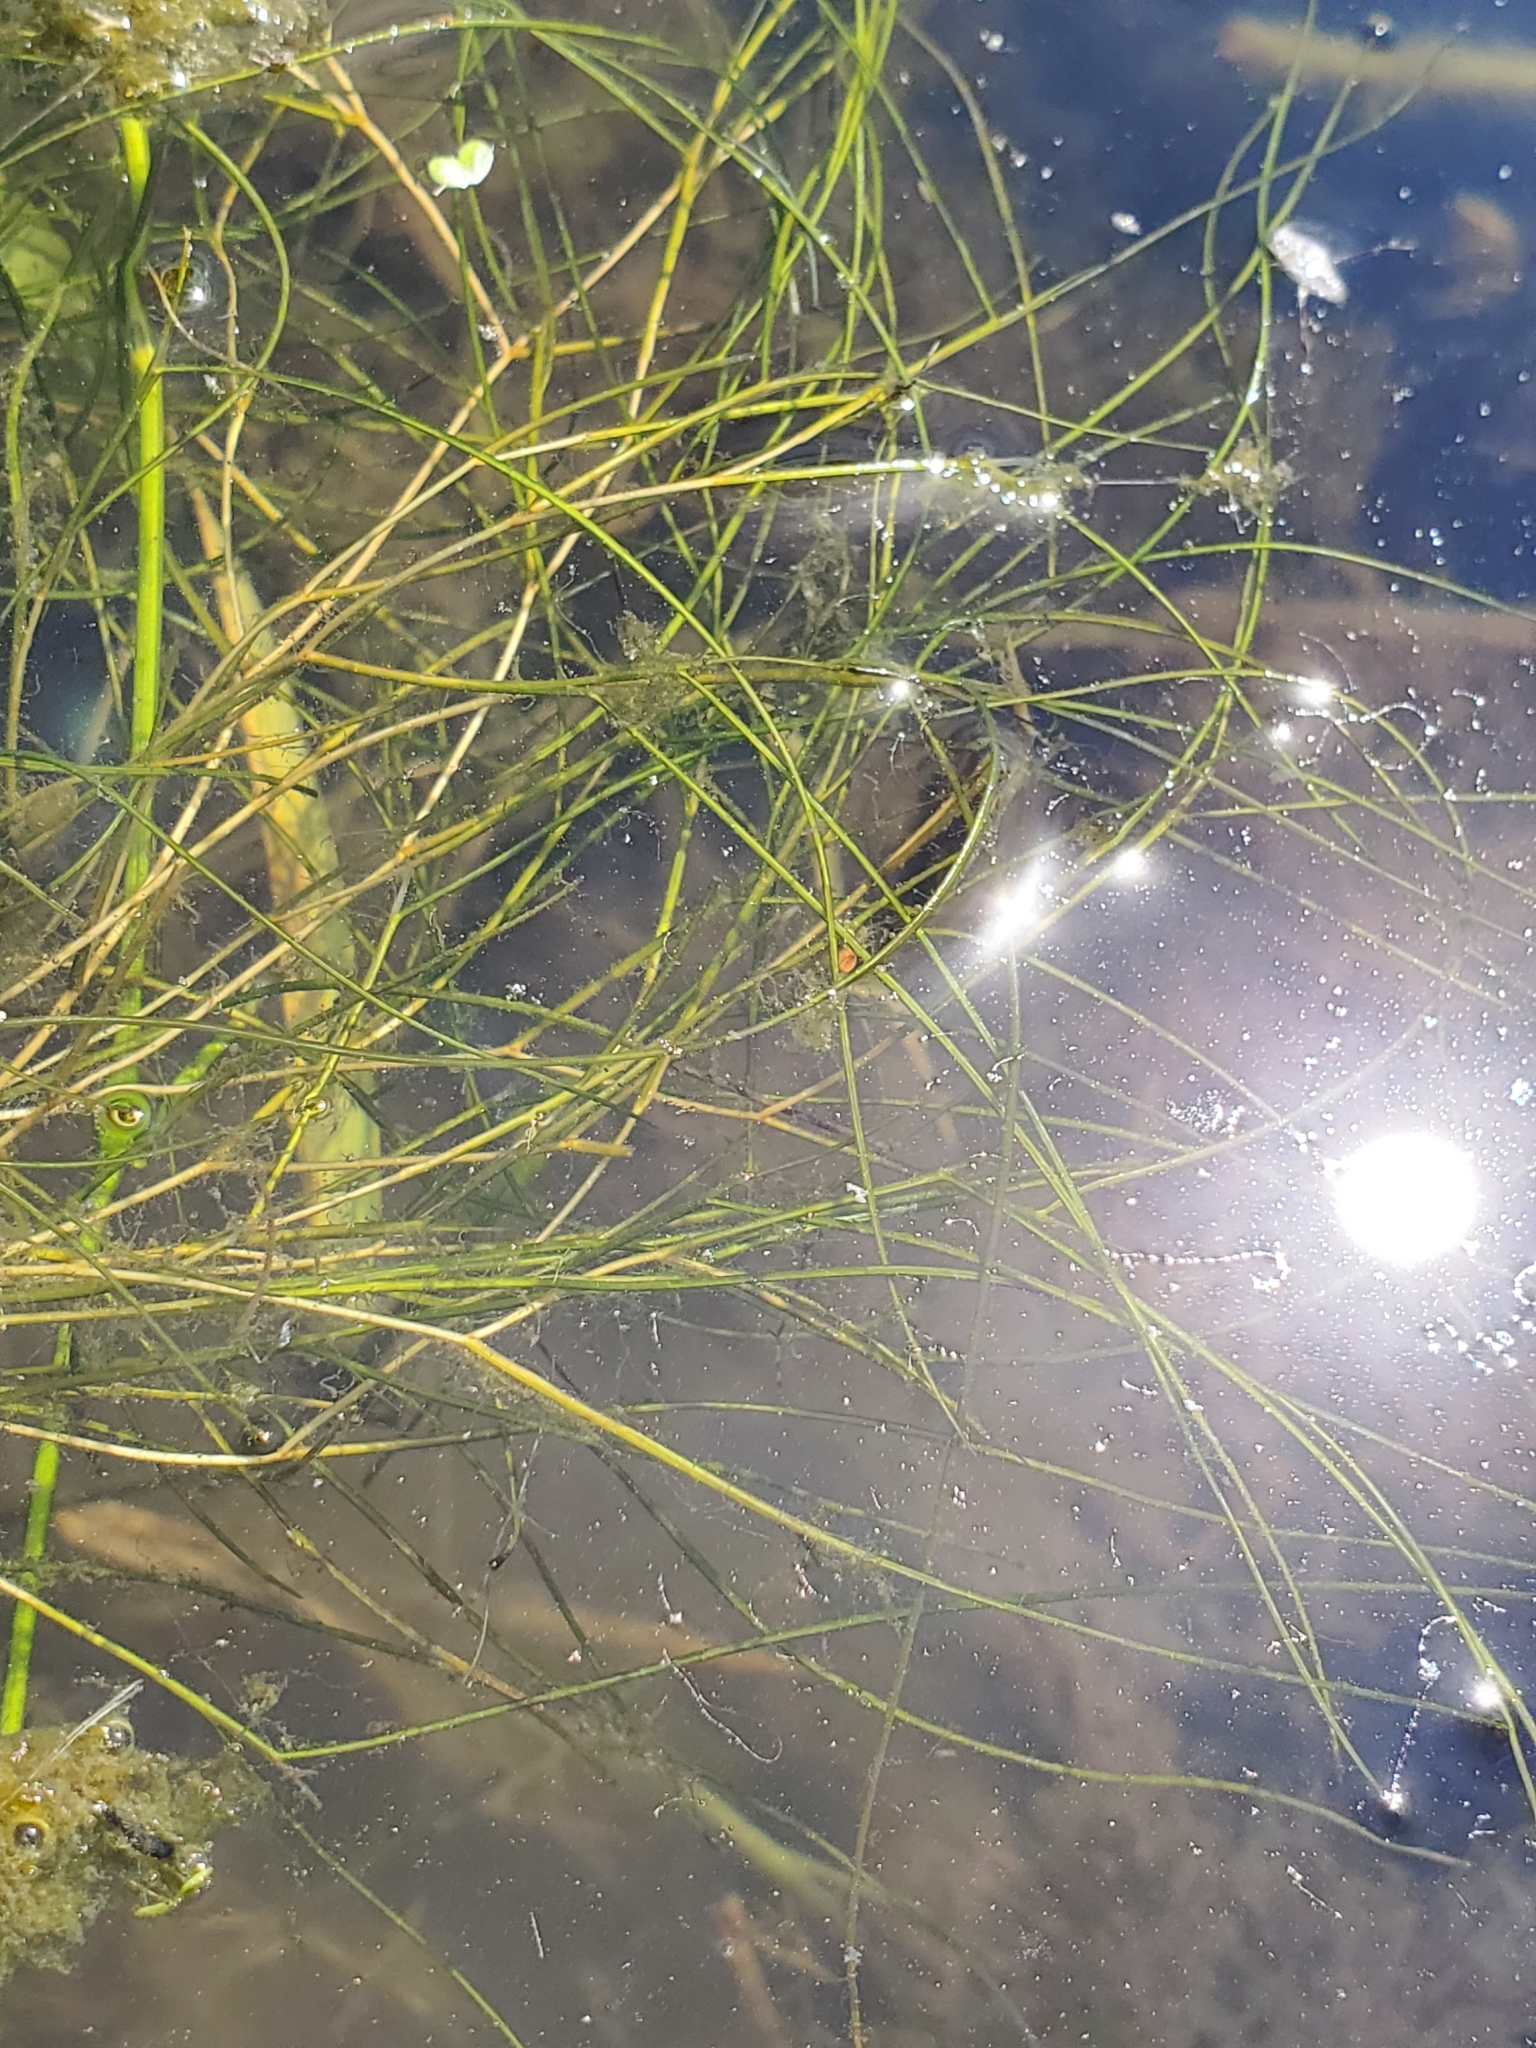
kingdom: Plantae
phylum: Tracheophyta
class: Liliopsida
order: Alismatales
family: Potamogetonaceae
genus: Stuckenia
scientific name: Stuckenia pectinata
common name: Sago pondweed
